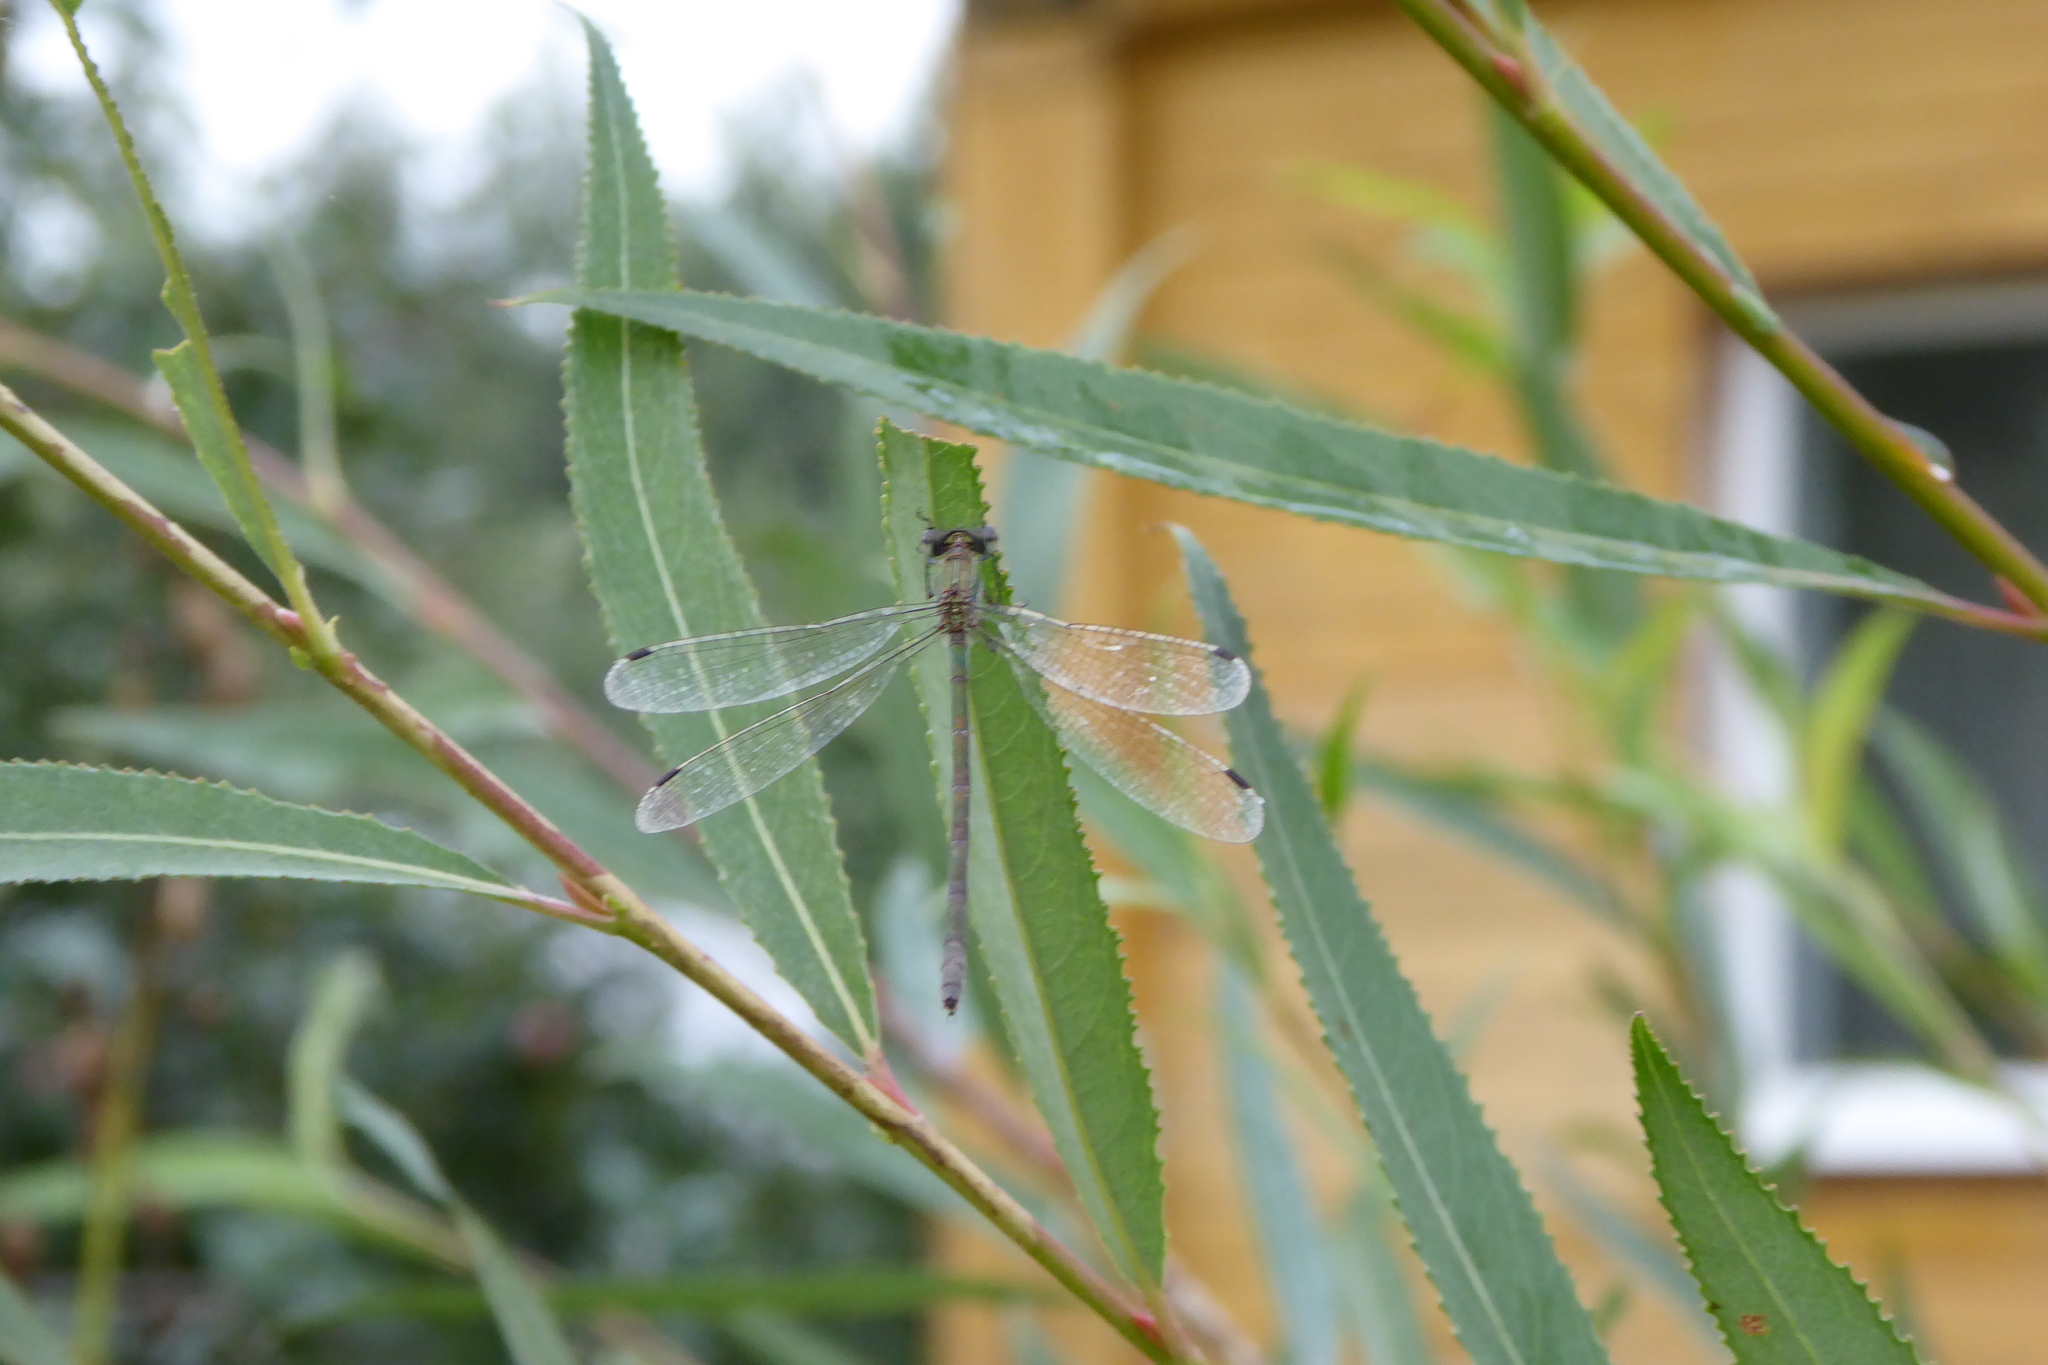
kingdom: Animalia
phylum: Arthropoda
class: Insecta
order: Odonata
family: Lestidae
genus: Lestes
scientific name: Lestes sponsa
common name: Common spreadwing
